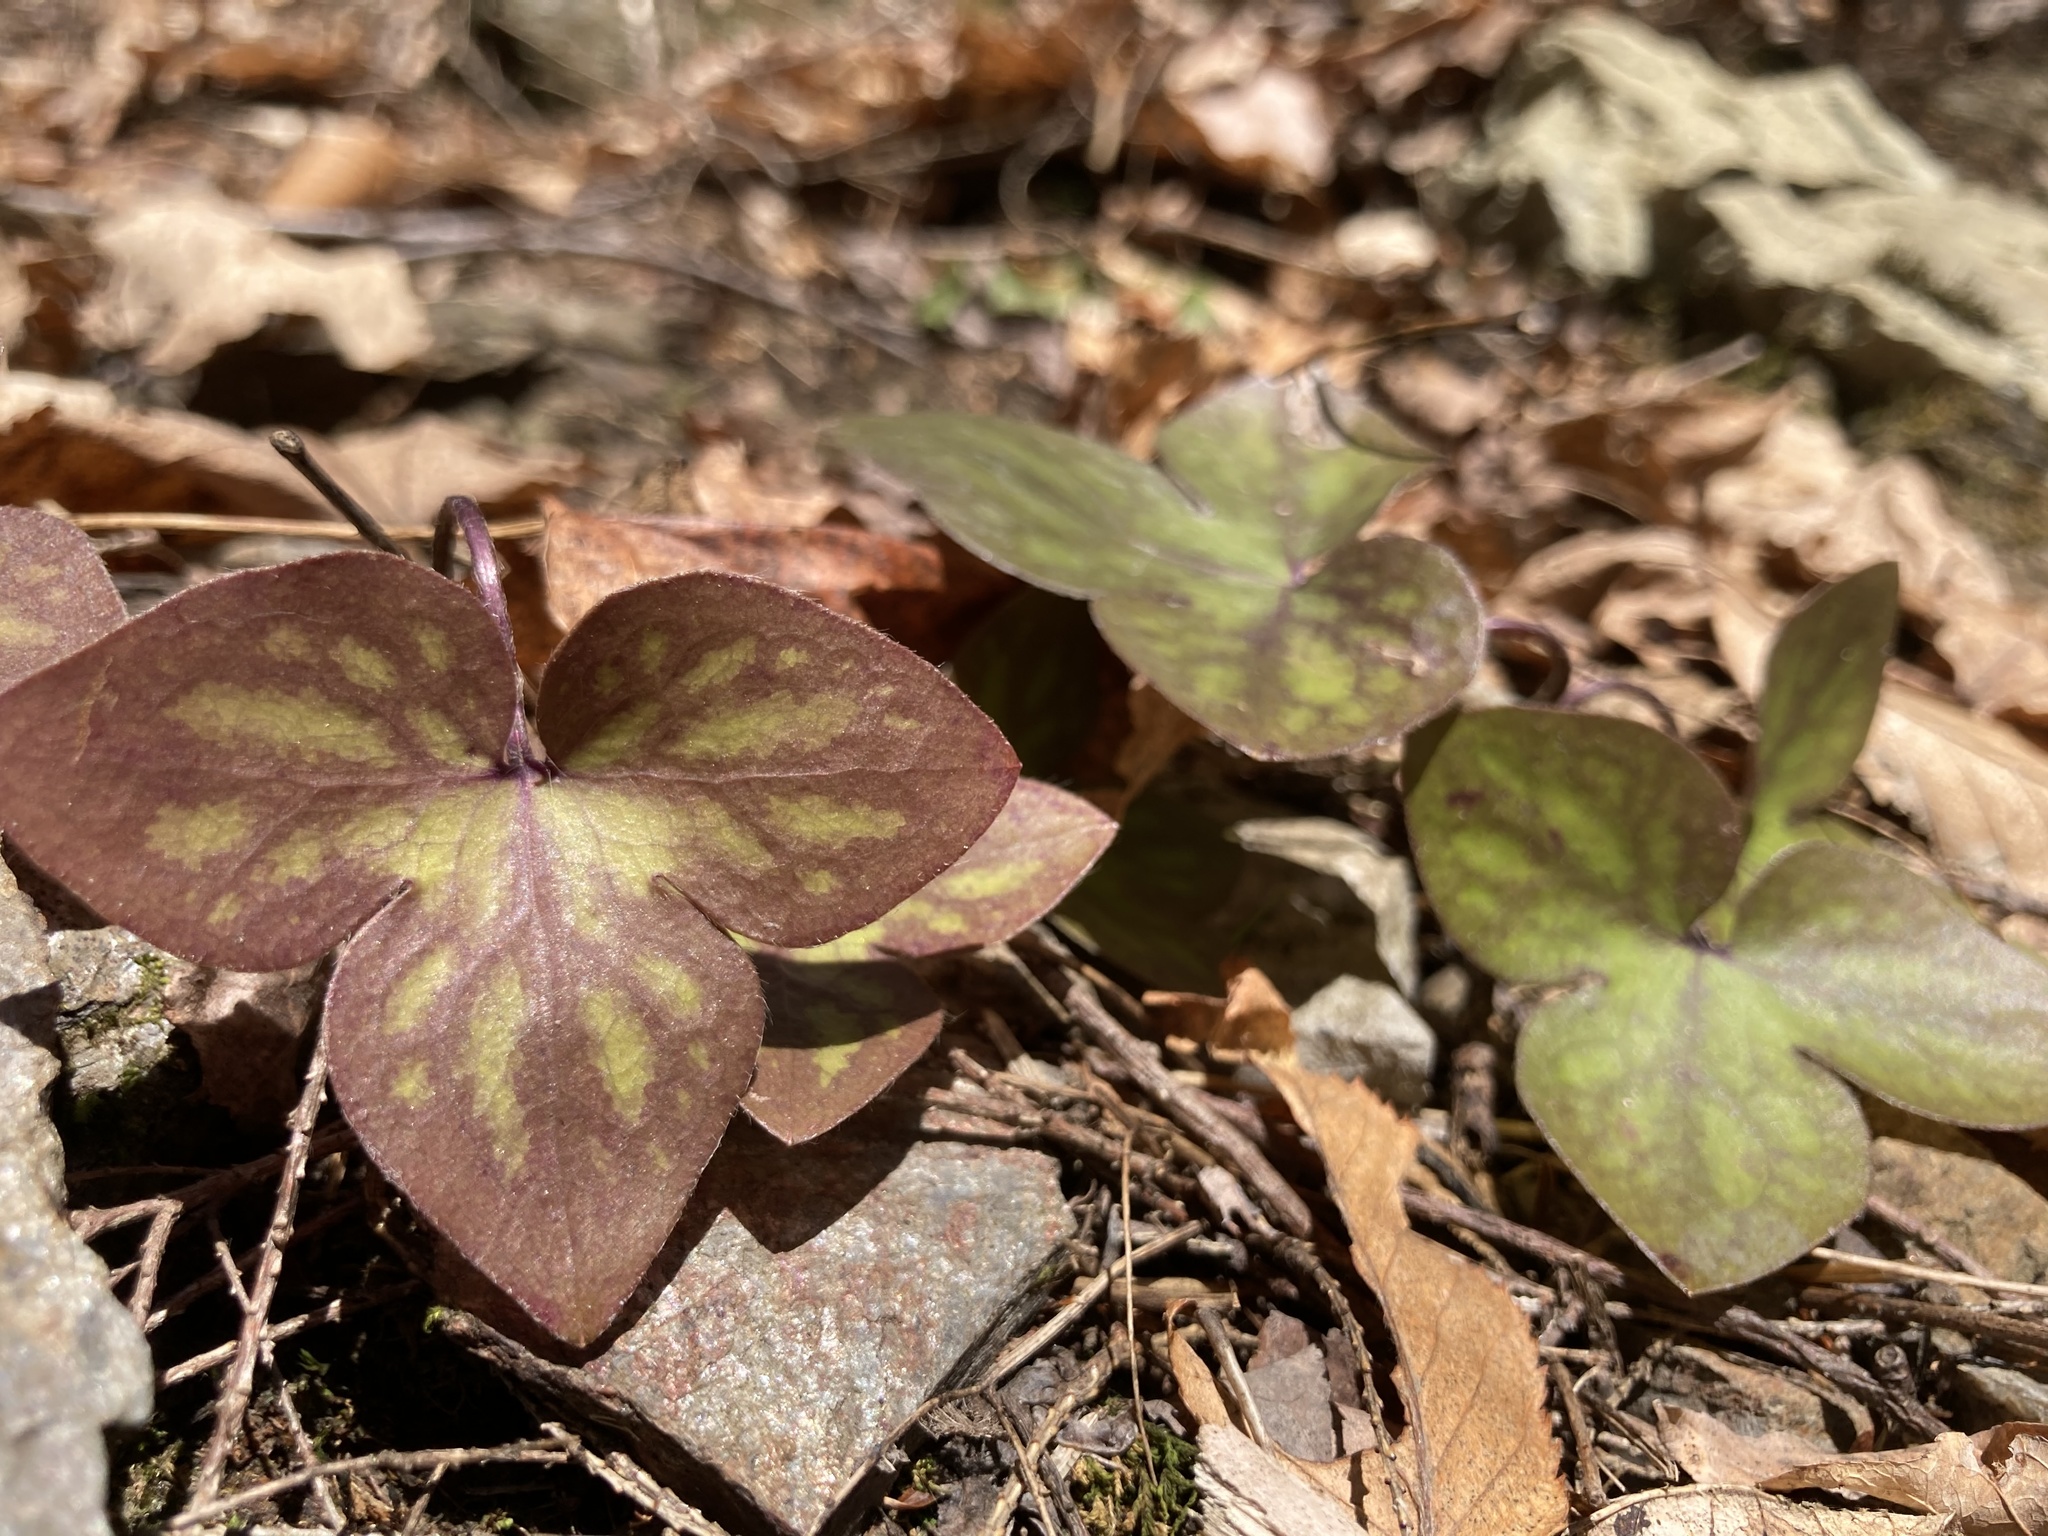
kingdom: Plantae
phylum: Tracheophyta
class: Magnoliopsida
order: Ranunculales
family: Ranunculaceae
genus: Hepatica
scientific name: Hepatica acutiloba
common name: Sharp-lobed hepatica
